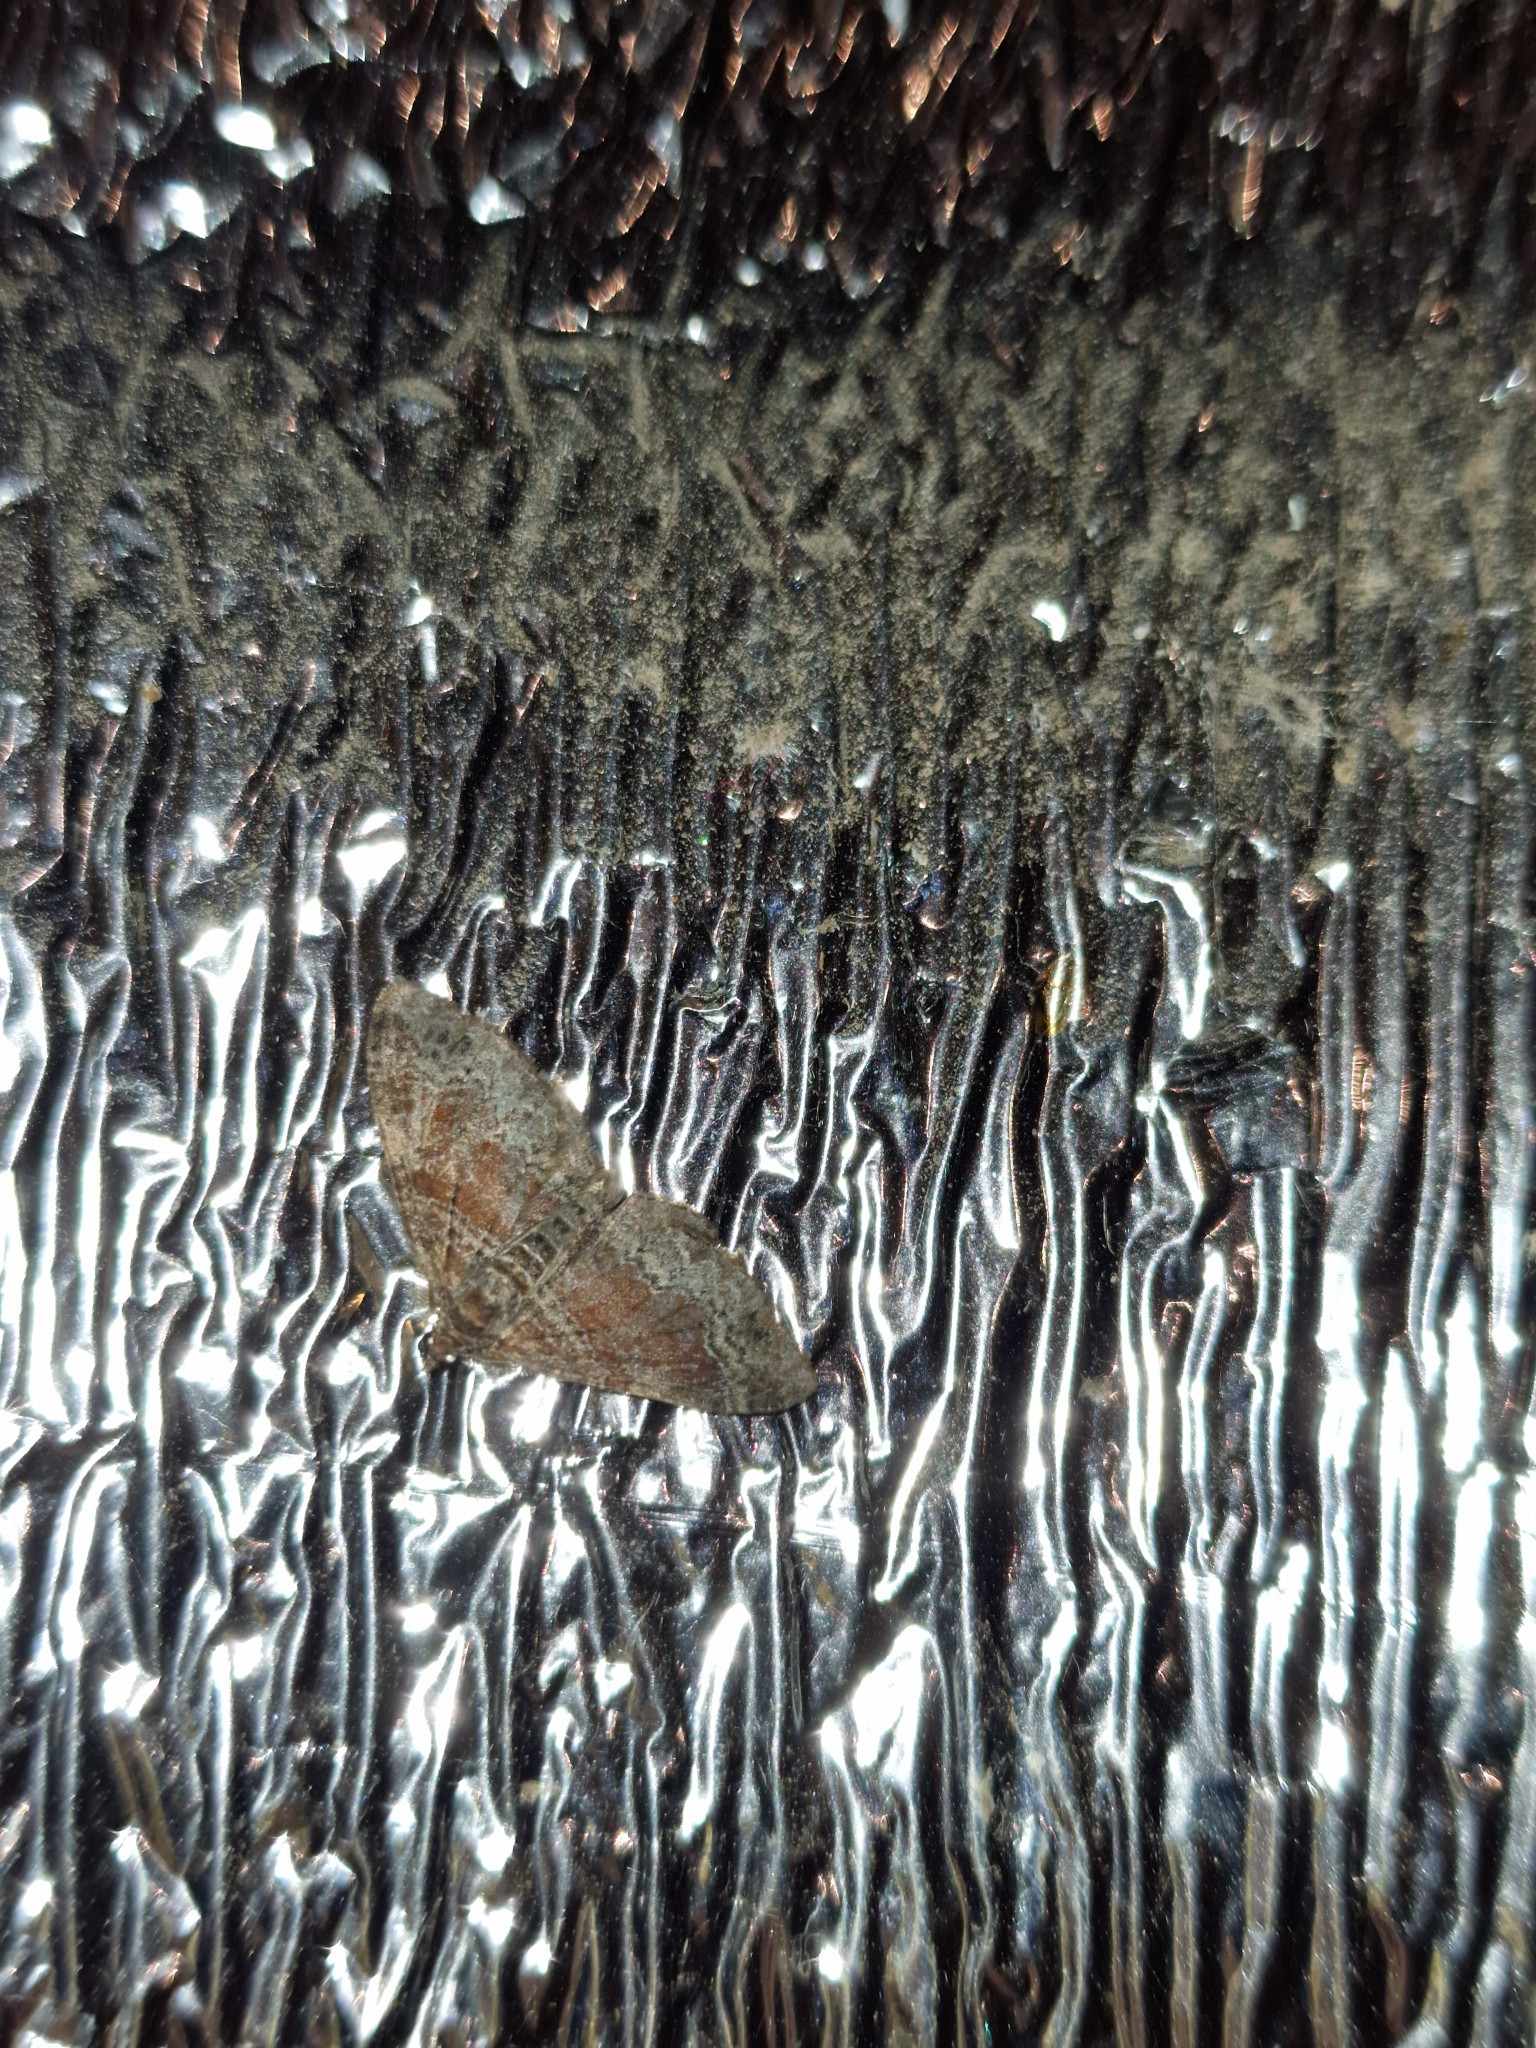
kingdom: Animalia
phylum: Arthropoda
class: Insecta
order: Lepidoptera
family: Geometridae
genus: Xanthorhoe
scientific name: Xanthorhoe ferrugata
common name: Dark-barred twin-spot carpet
